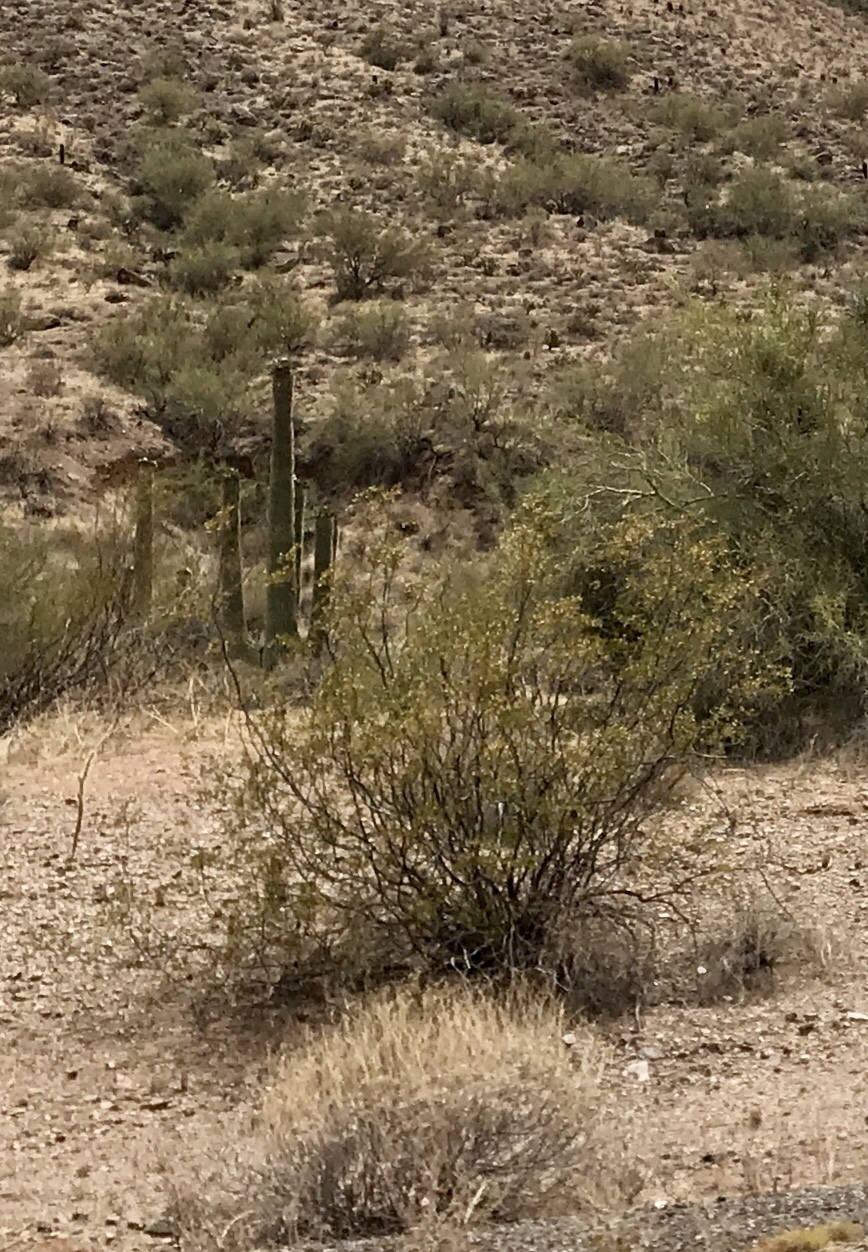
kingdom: Plantae
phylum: Tracheophyta
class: Magnoliopsida
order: Zygophyllales
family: Zygophyllaceae
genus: Larrea
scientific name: Larrea tridentata
